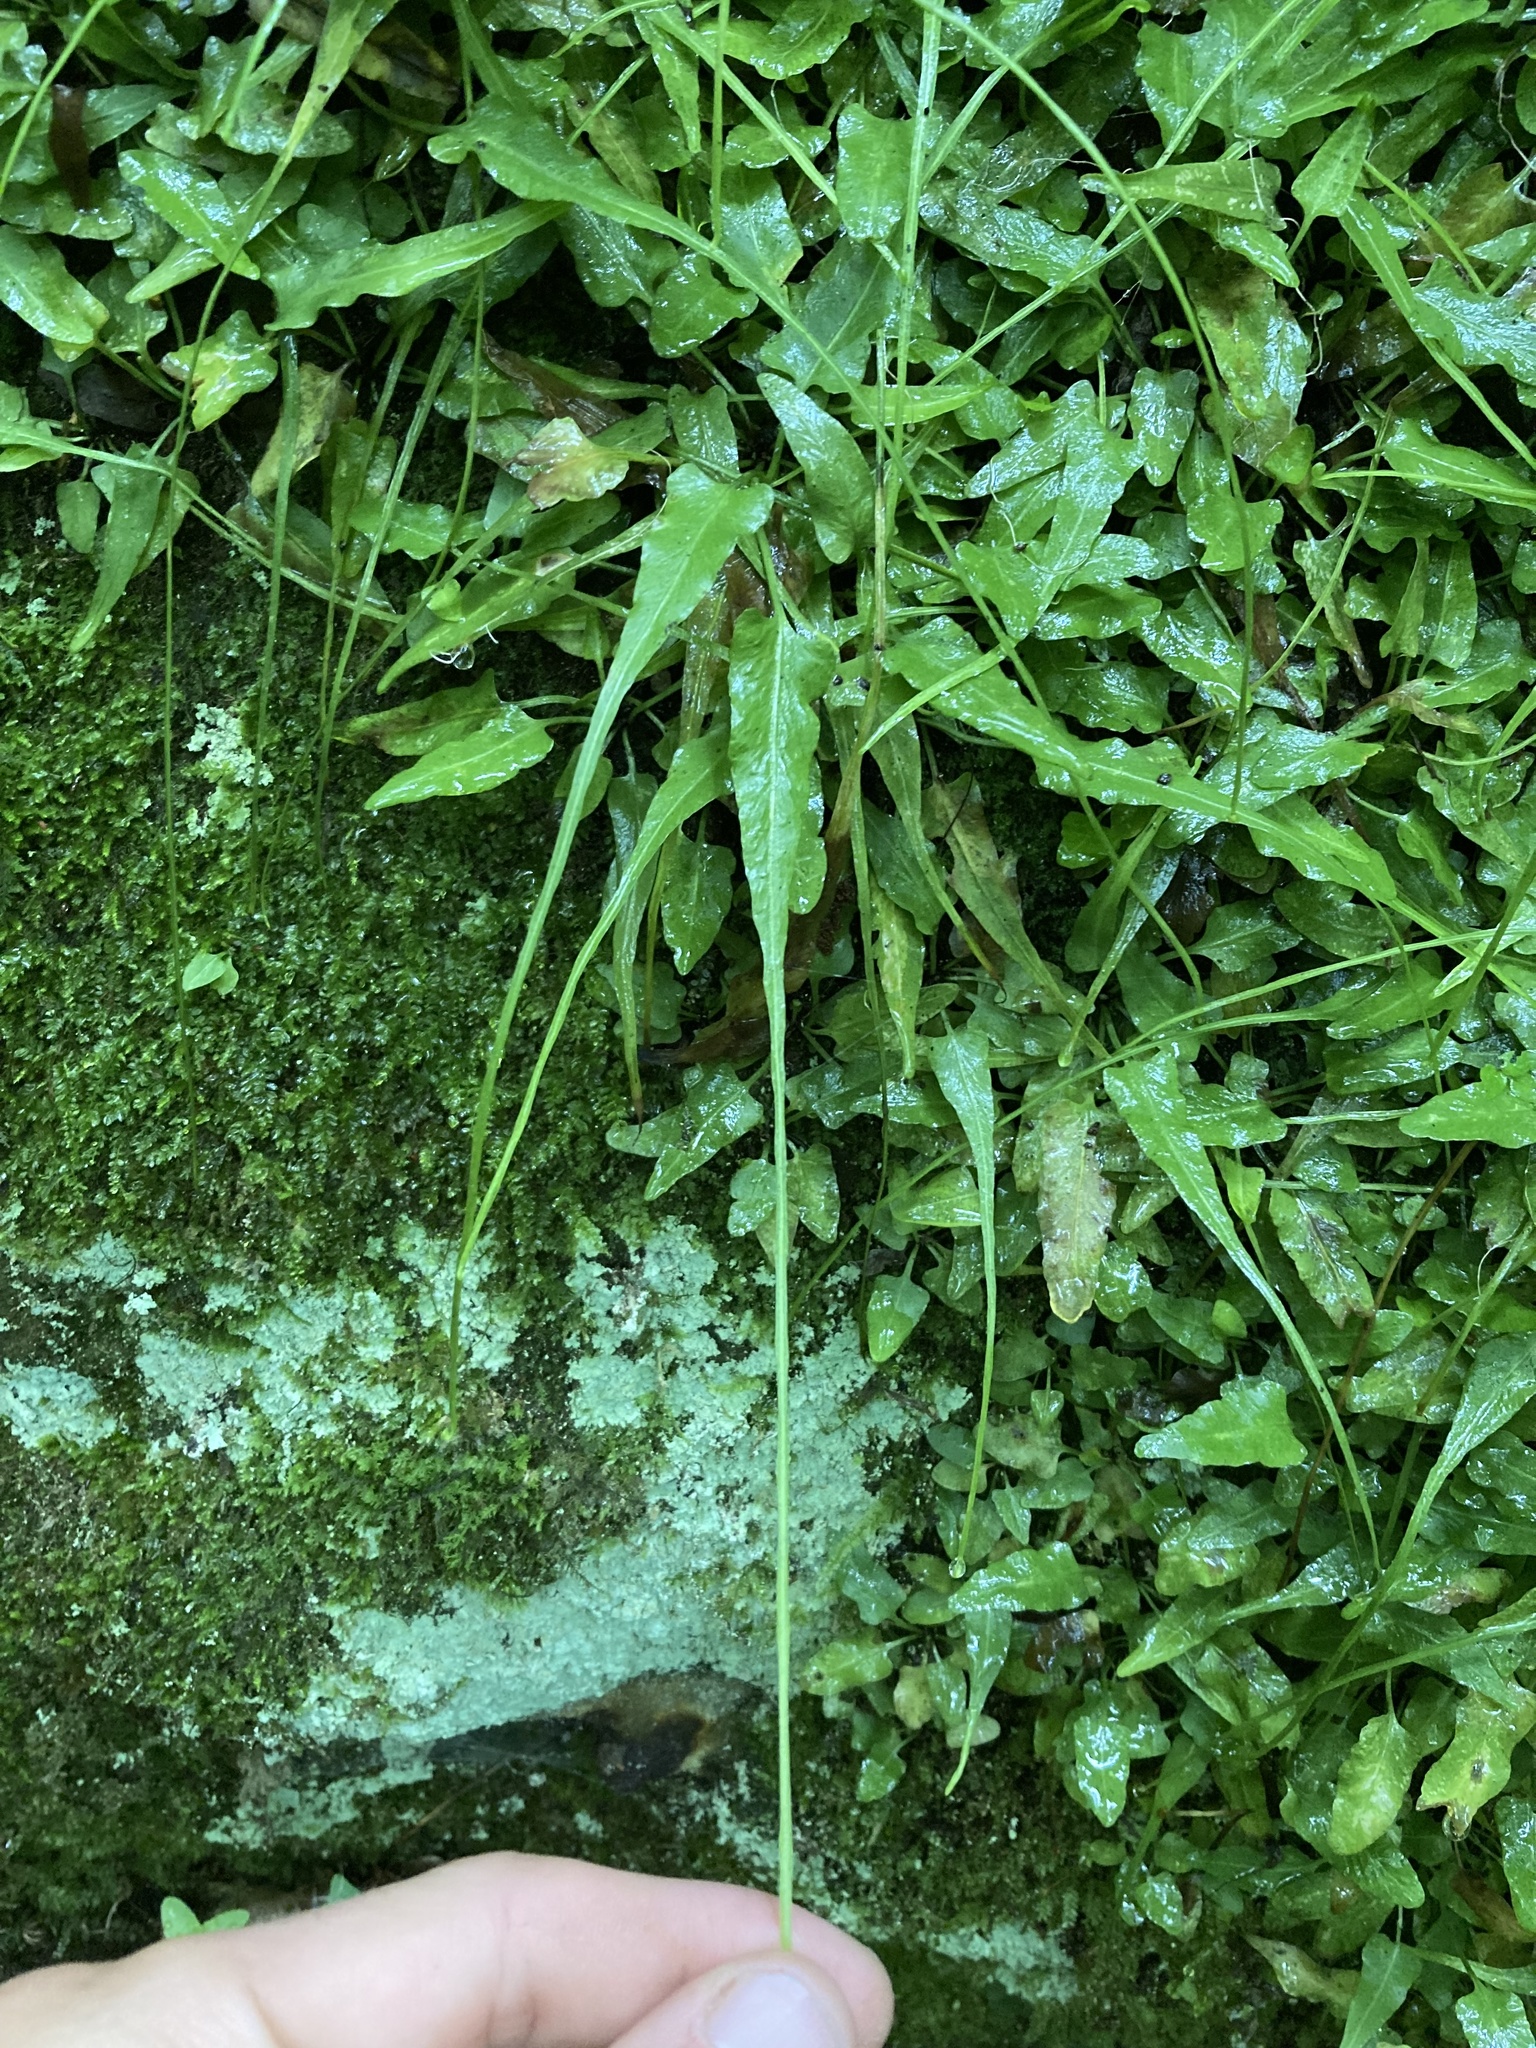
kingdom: Plantae
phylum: Tracheophyta
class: Polypodiopsida
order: Polypodiales
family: Aspleniaceae
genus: Asplenium
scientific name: Asplenium rhizophyllum
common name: Walking fern
